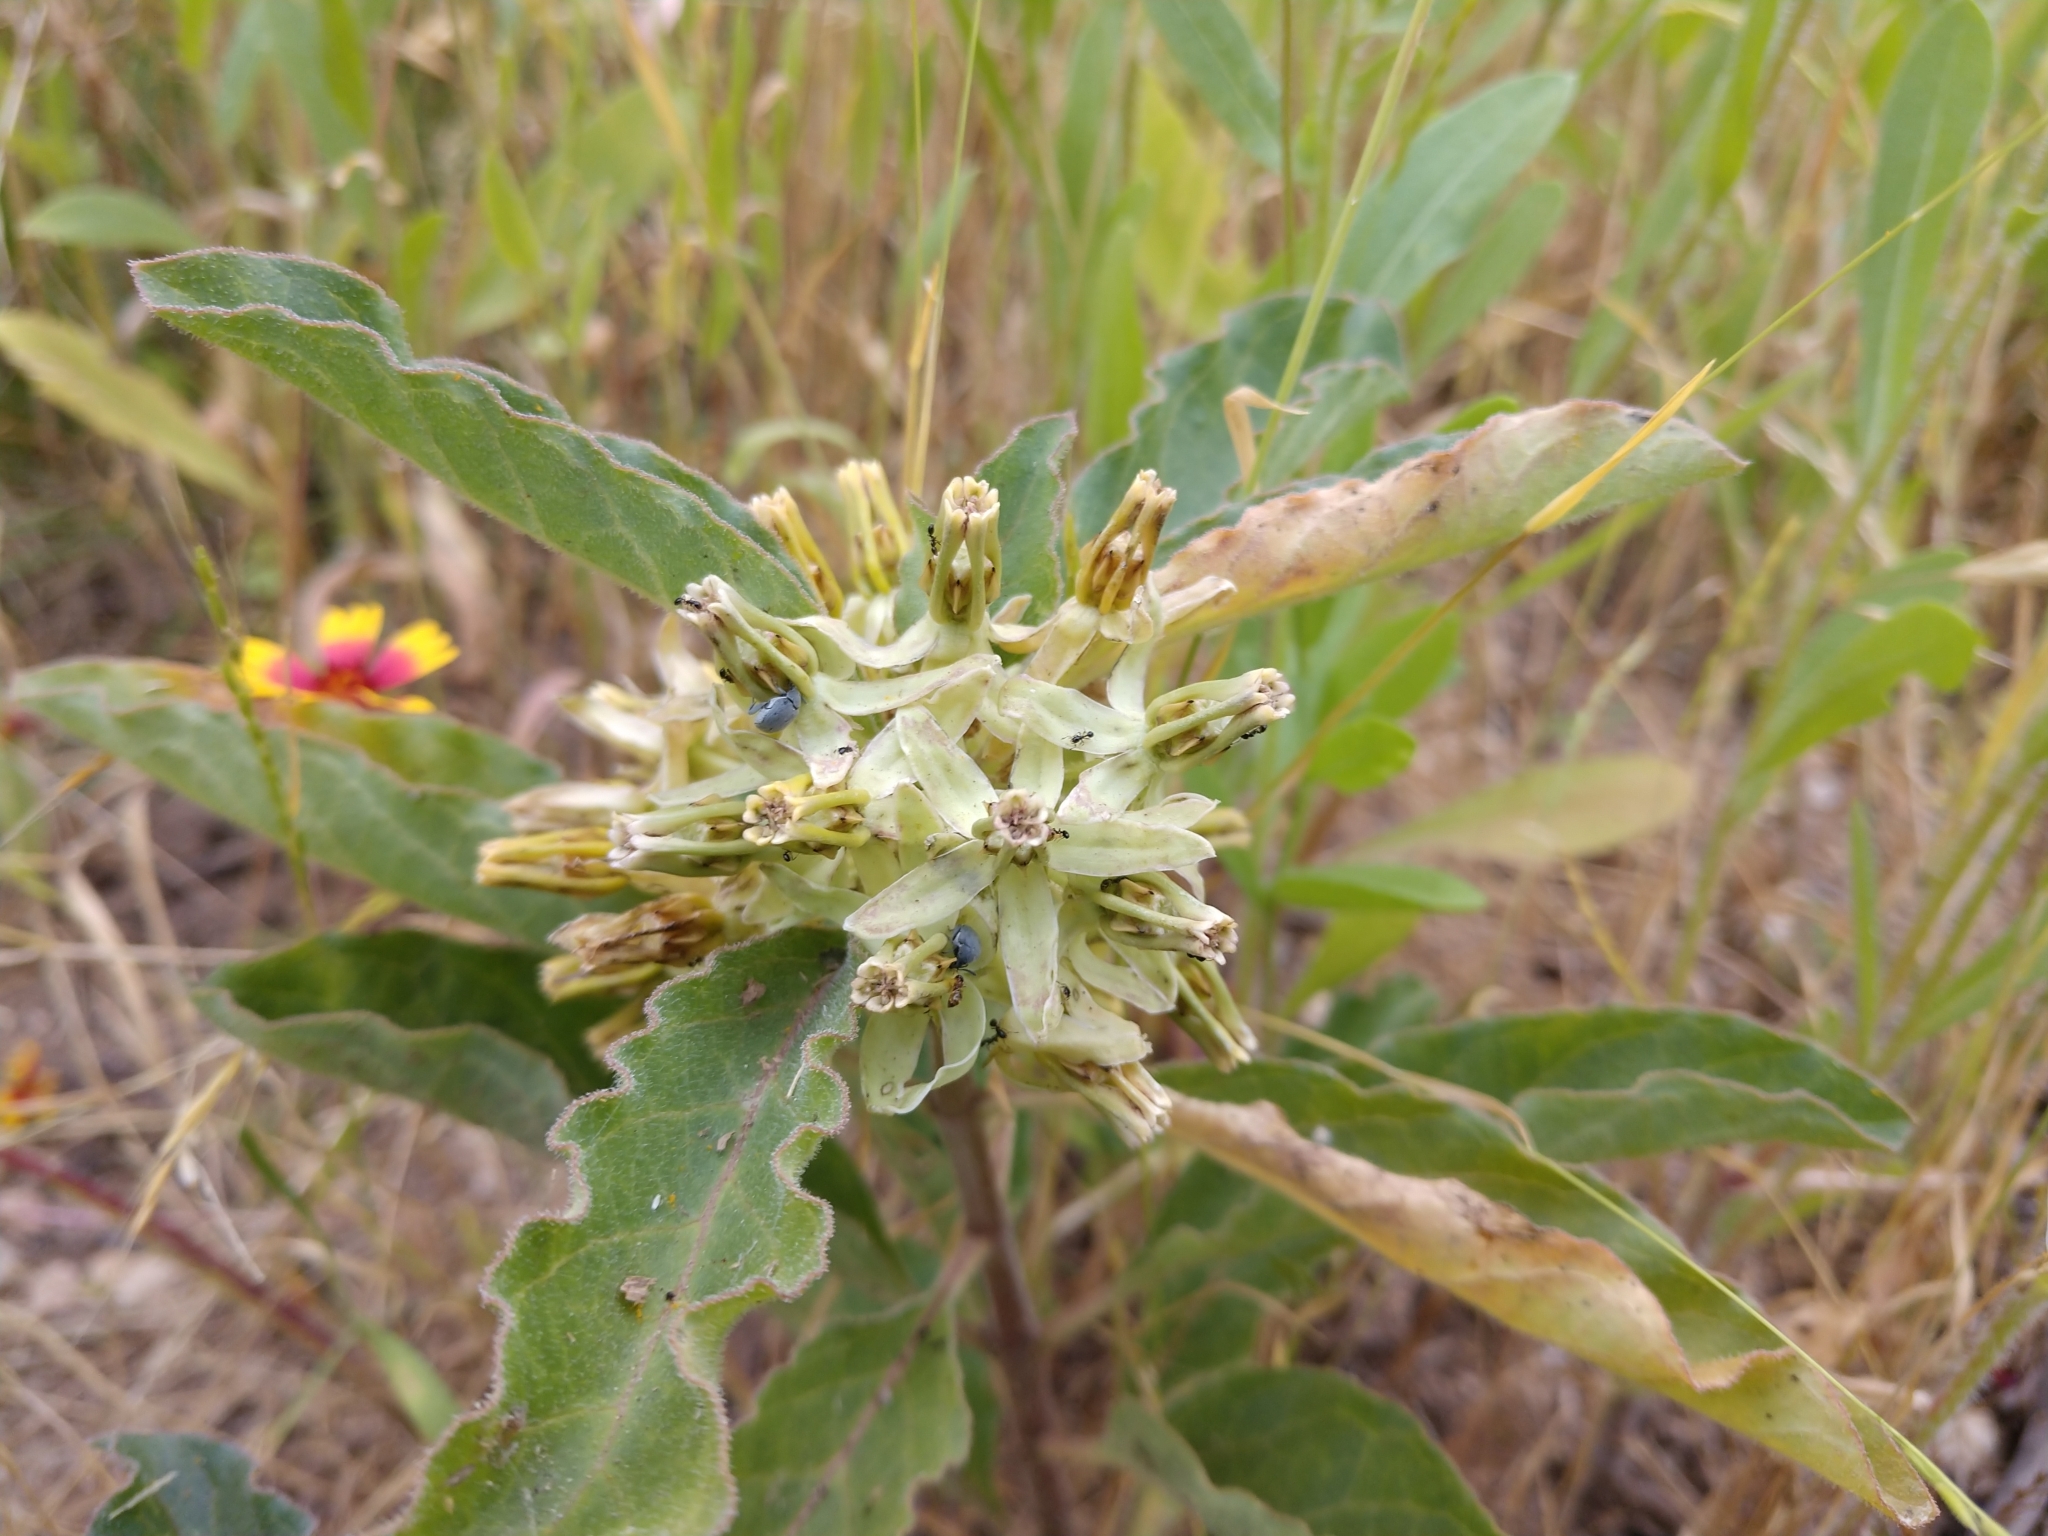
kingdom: Plantae
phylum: Tracheophyta
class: Magnoliopsida
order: Gentianales
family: Apocynaceae
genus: Asclepias
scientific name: Asclepias oenotheroides
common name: Zizotes milkweed
